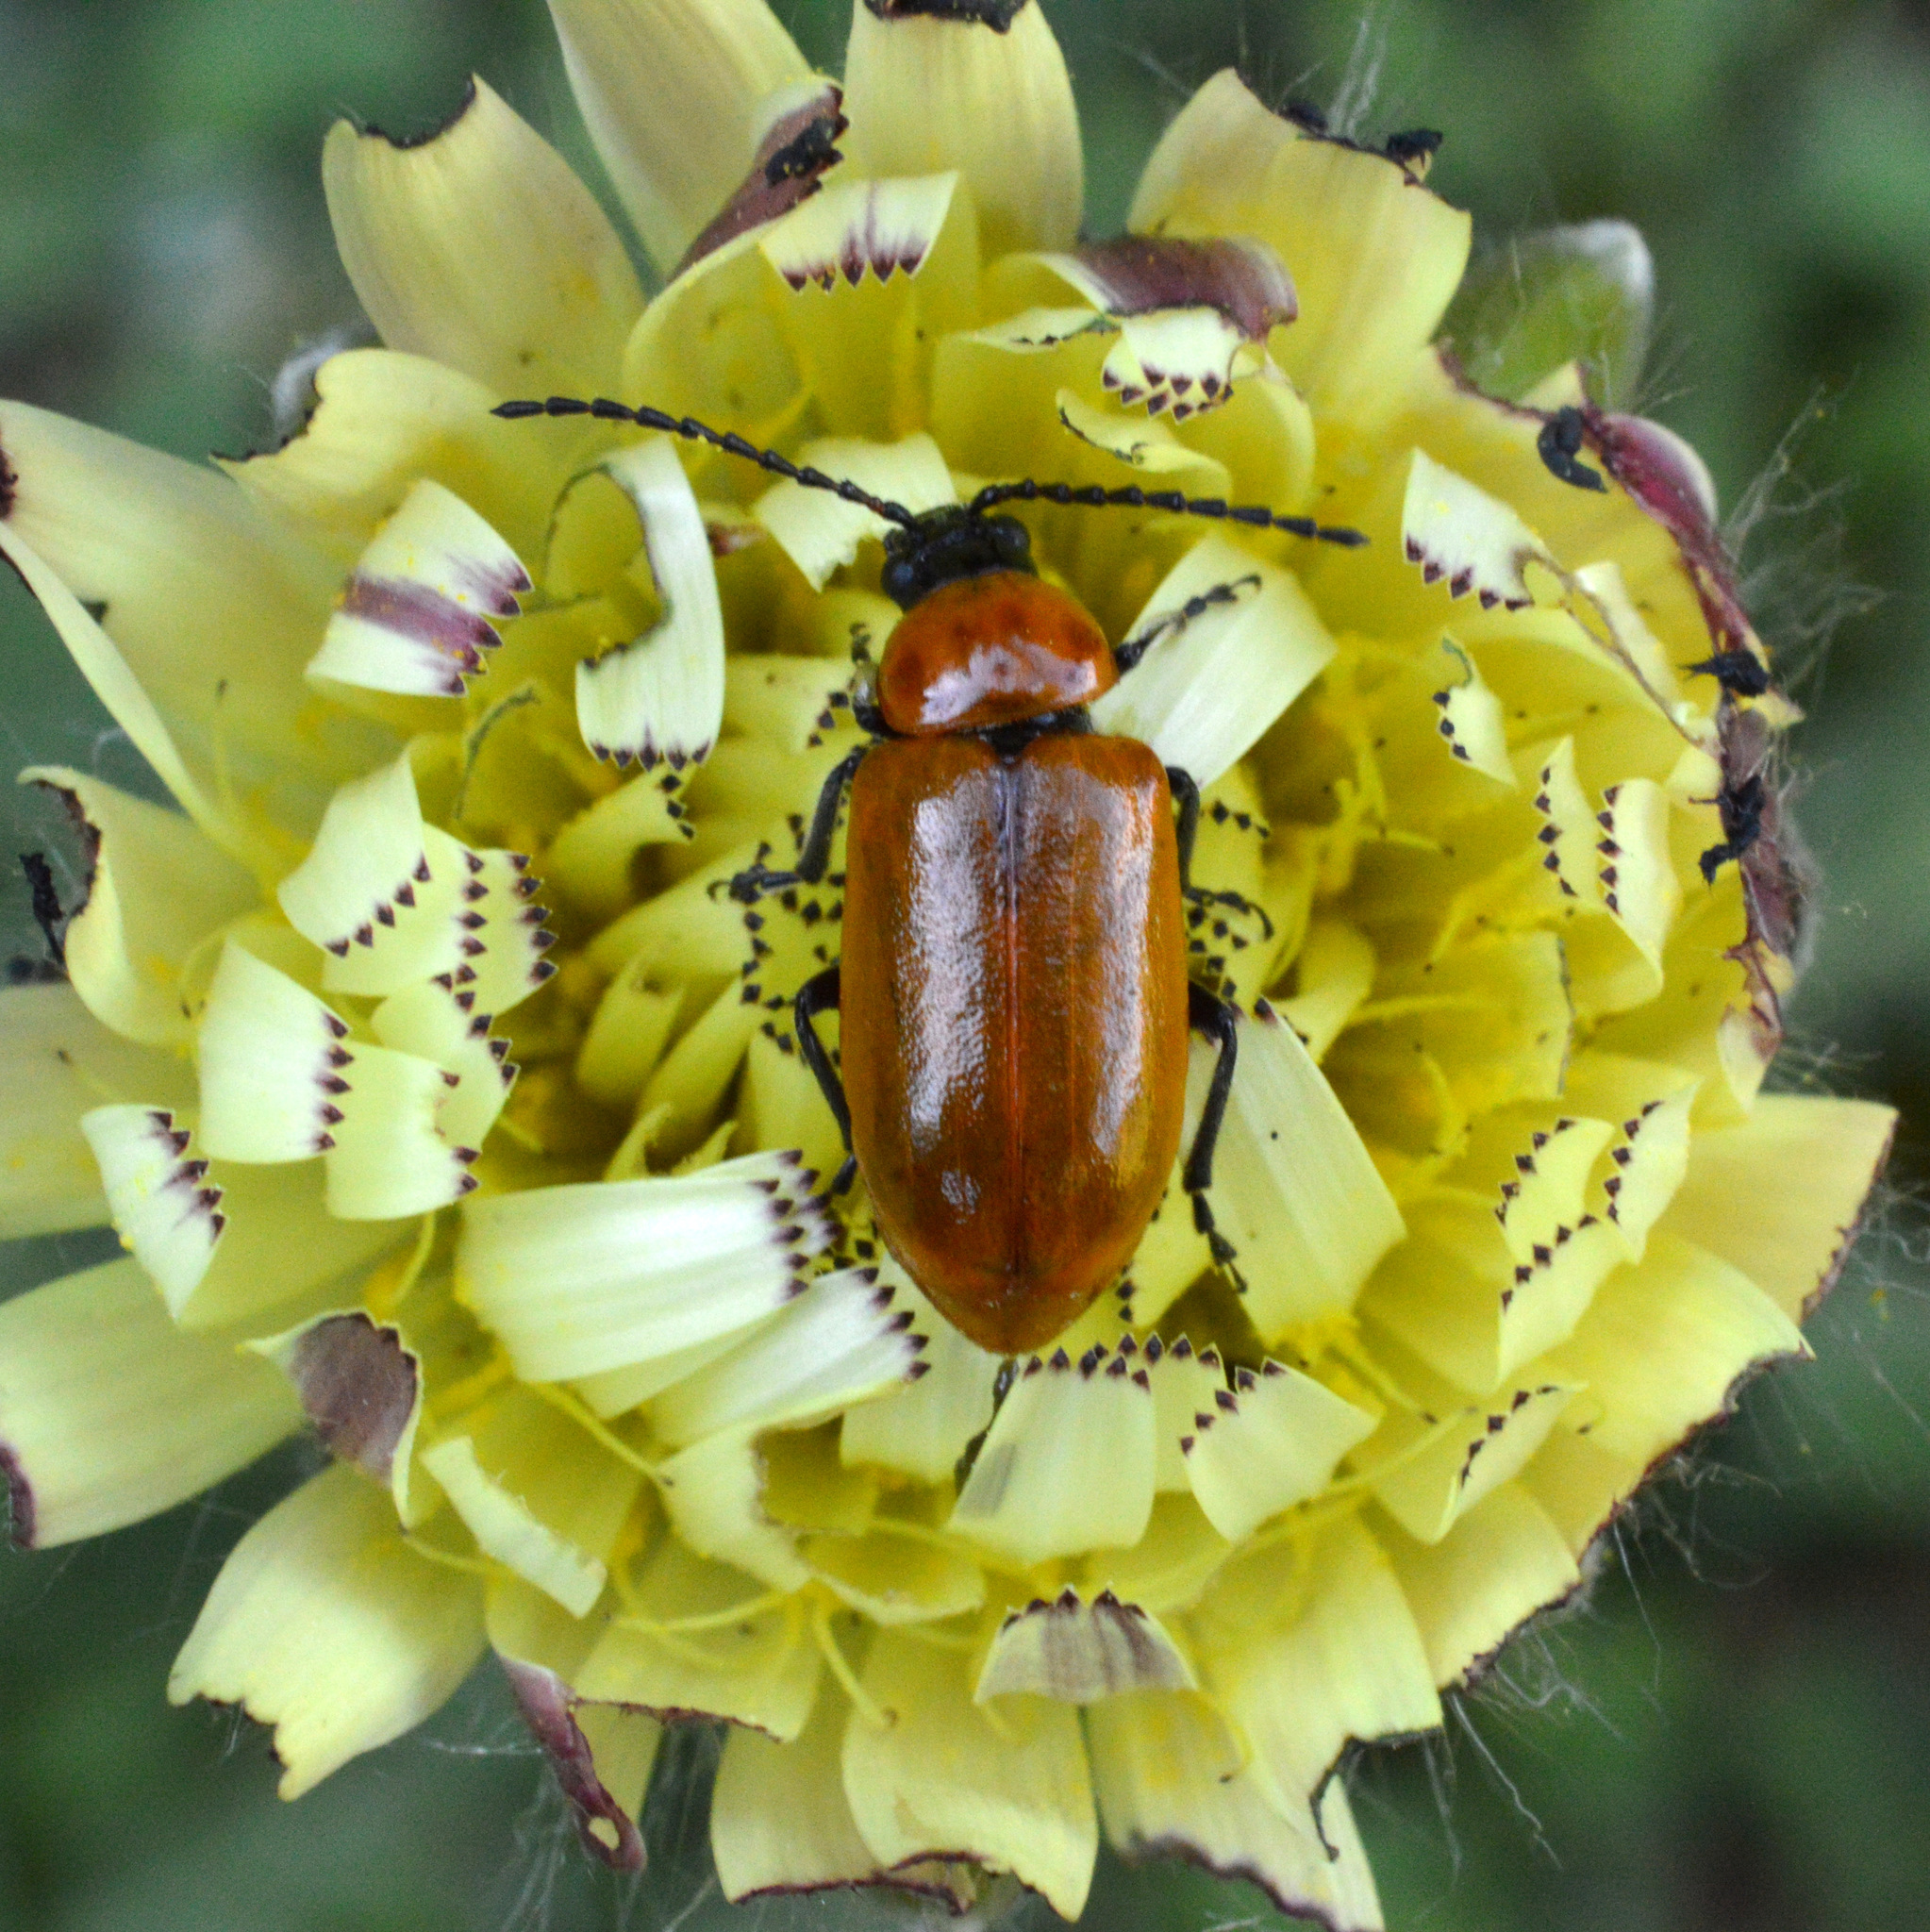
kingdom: Animalia
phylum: Arthropoda
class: Insecta
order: Coleoptera
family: Chrysomelidae
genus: Exosoma
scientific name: Exosoma lusitanicum
